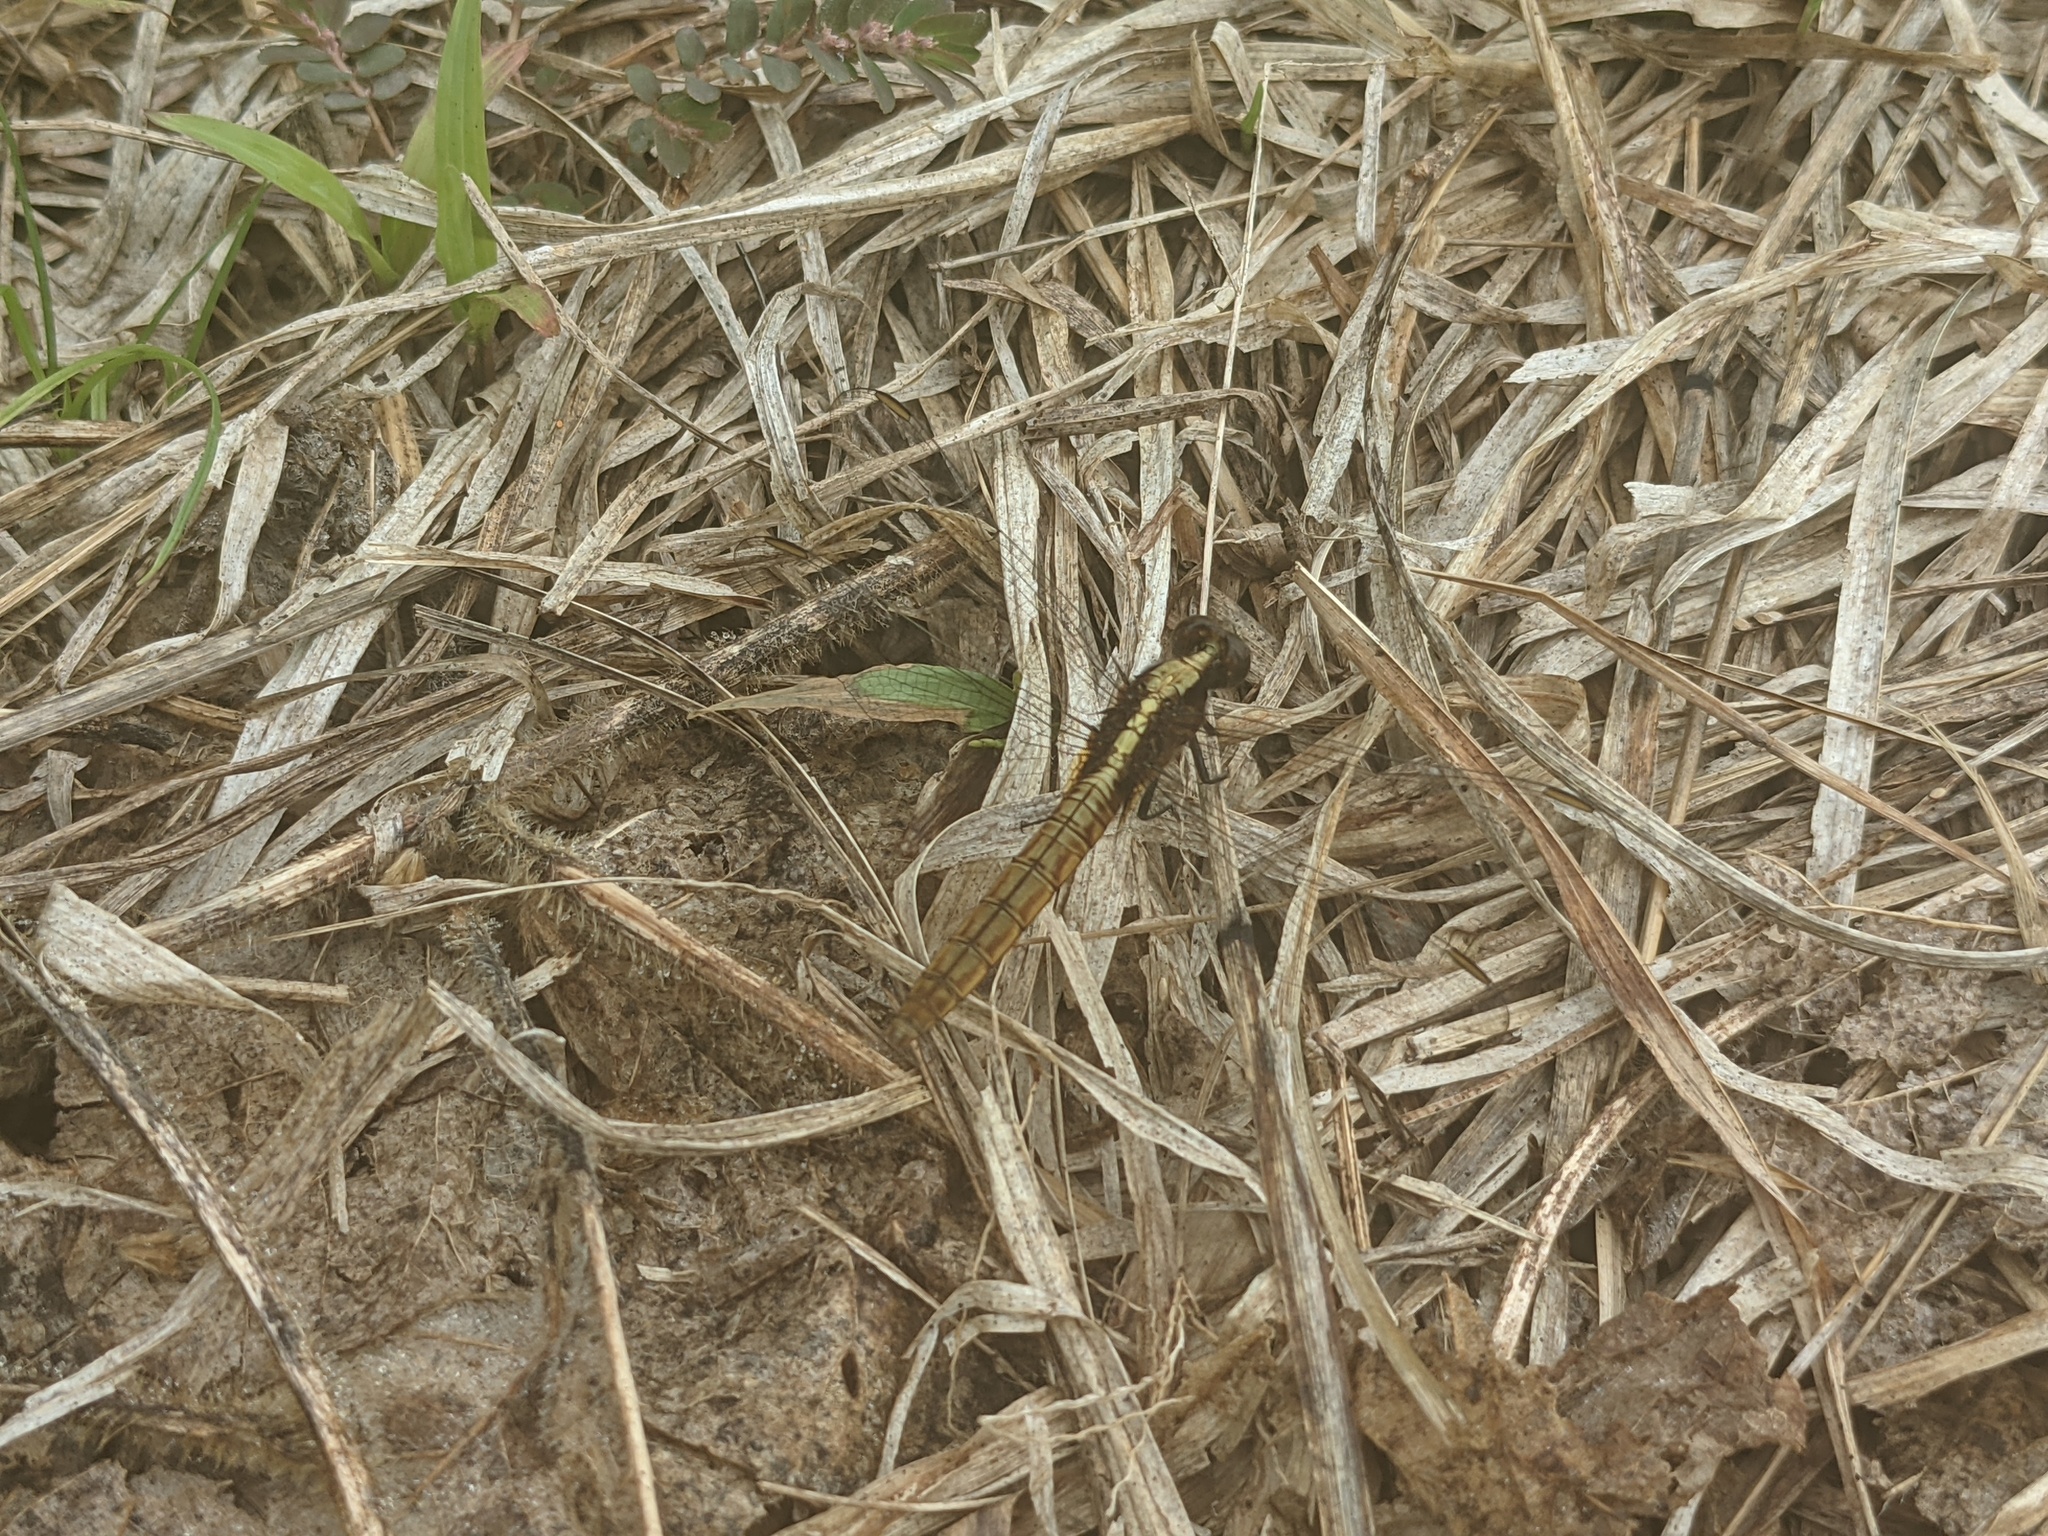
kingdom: Animalia
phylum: Arthropoda
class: Insecta
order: Odonata
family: Libellulidae
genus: Erythemis
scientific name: Erythemis peruviana
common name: Flame-tailed pondhawk
